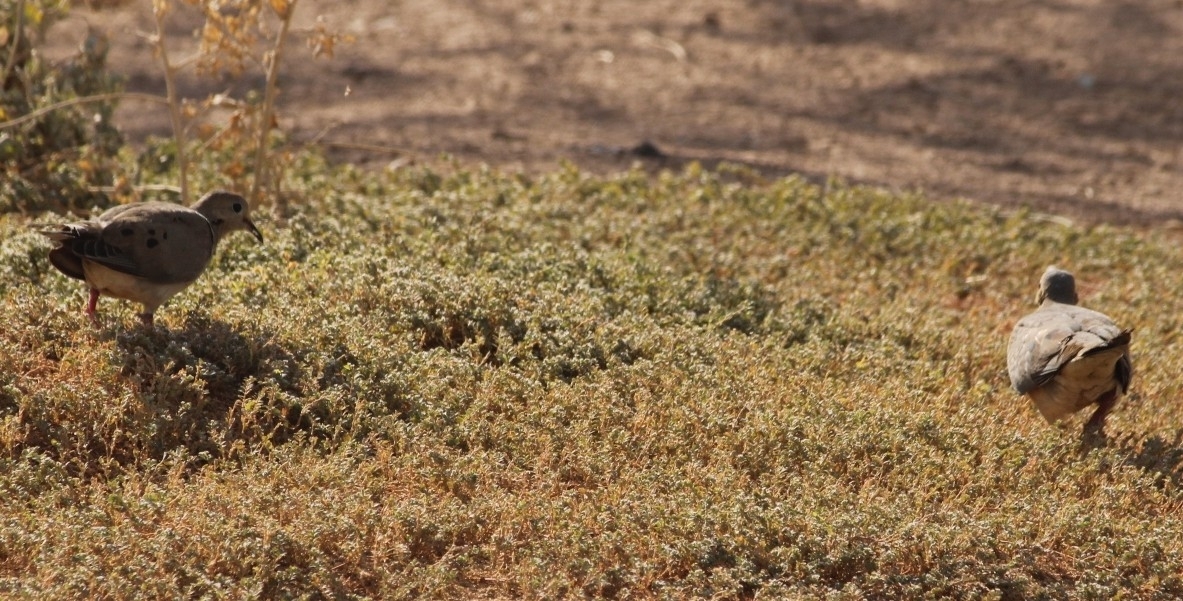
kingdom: Animalia
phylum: Chordata
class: Aves
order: Columbiformes
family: Columbidae
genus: Zenaida
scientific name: Zenaida macroura
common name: Mourning dove
